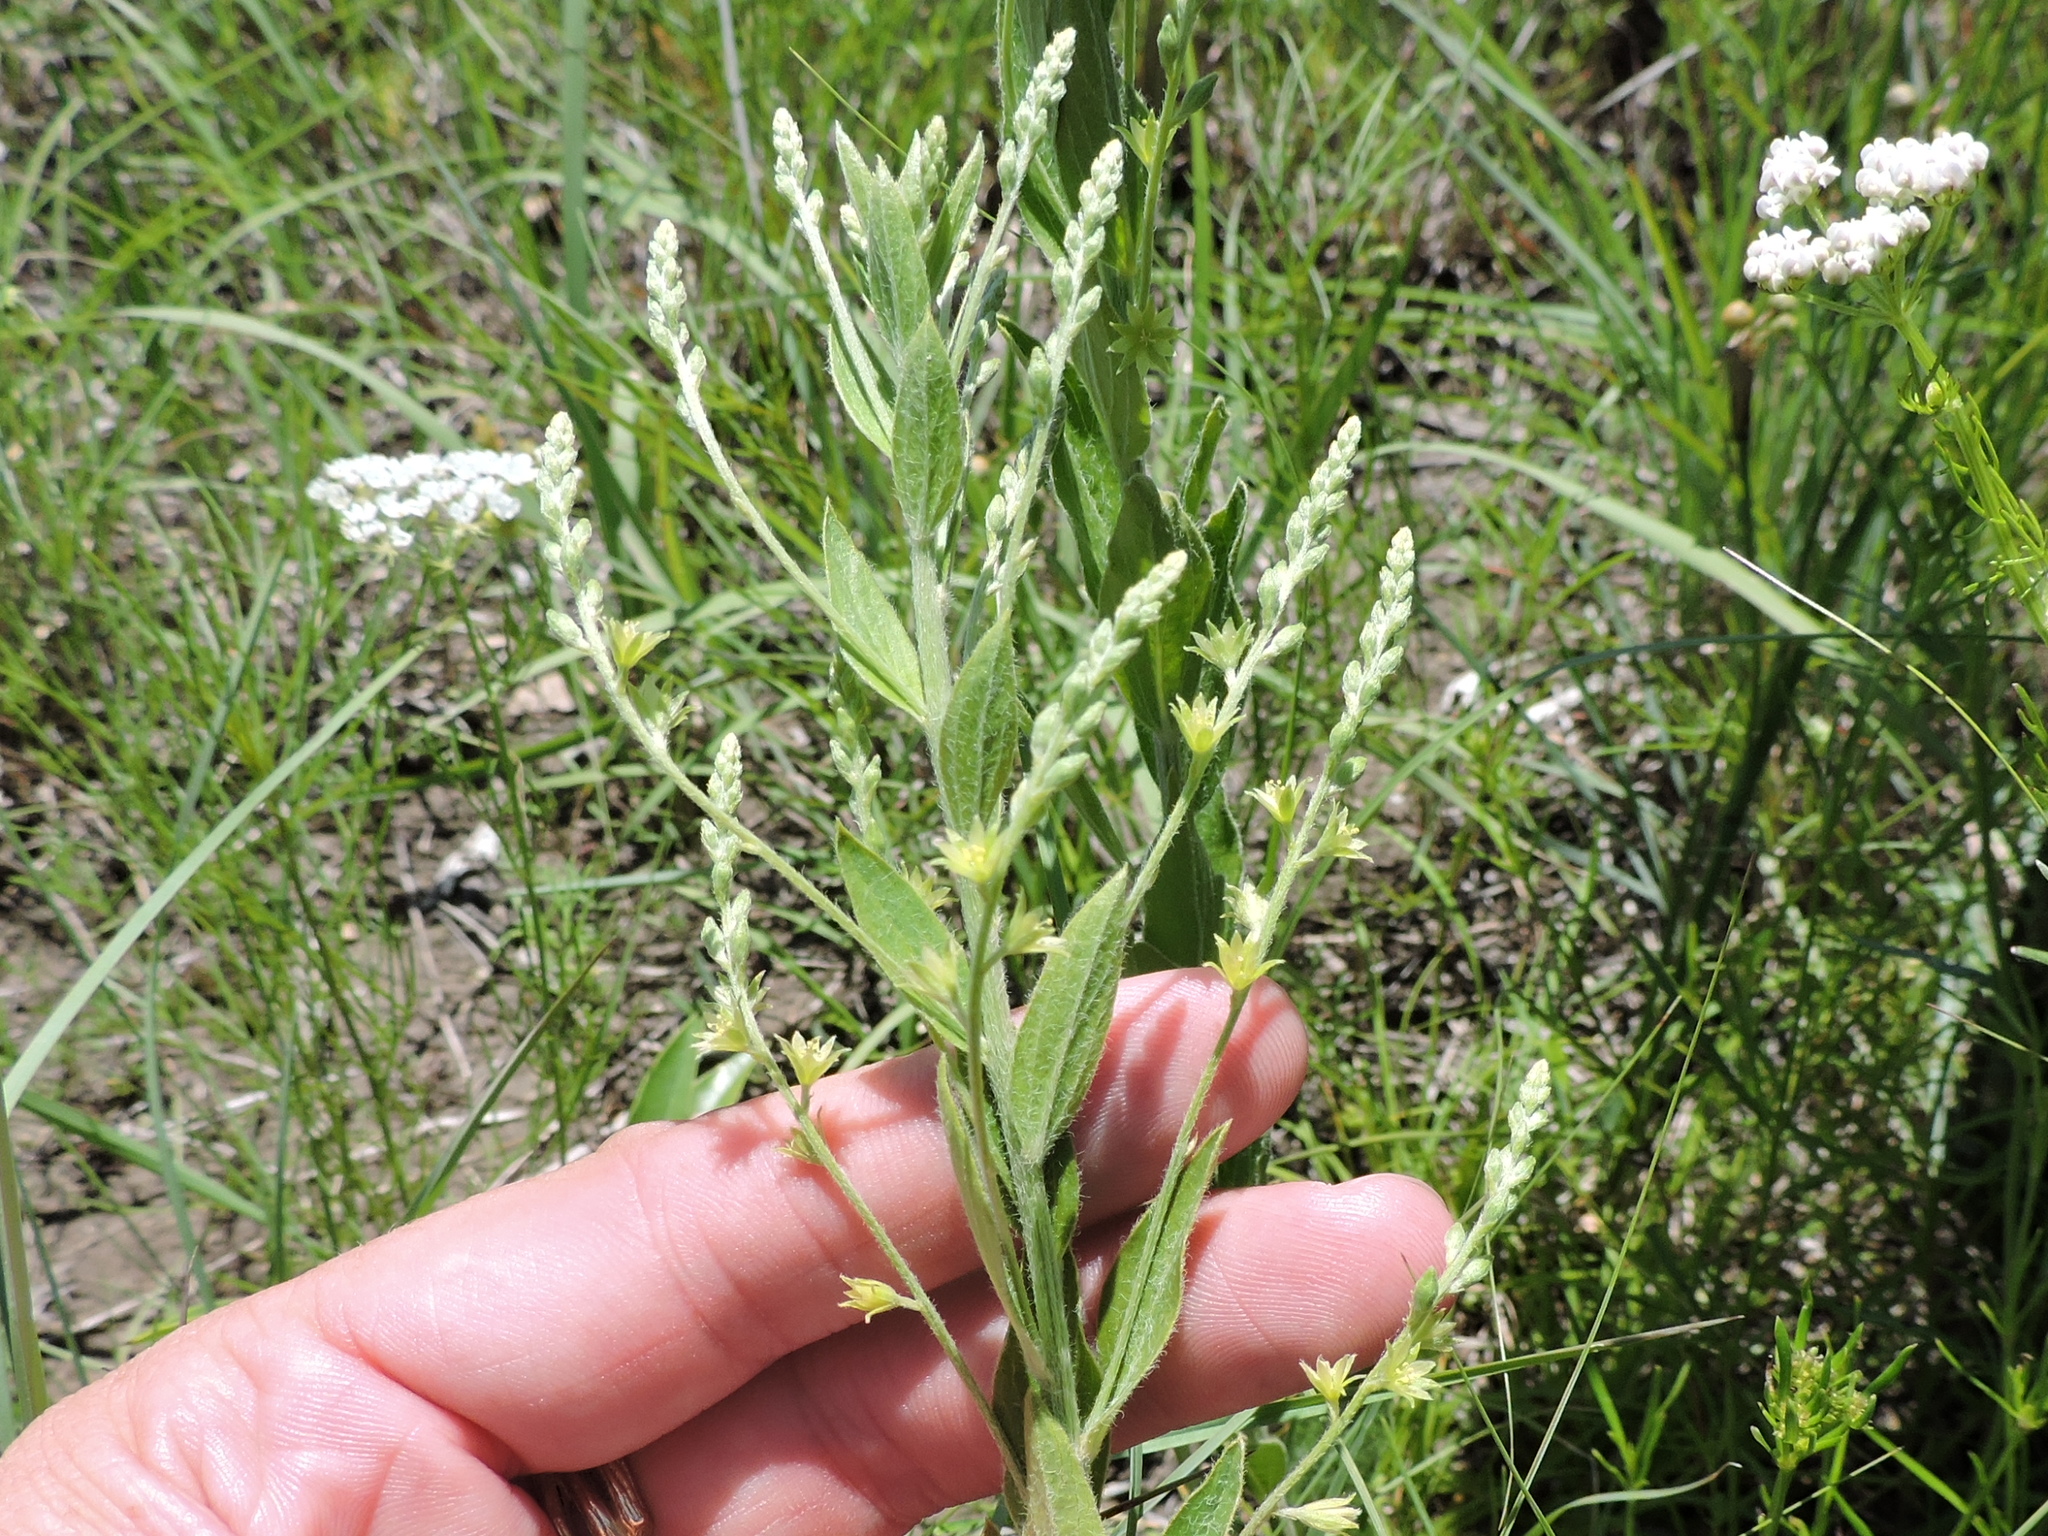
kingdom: Plantae
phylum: Tracheophyta
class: Magnoliopsida
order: Malpighiales
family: Euphorbiaceae
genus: Ditaxis
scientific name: Ditaxis mercurialina
